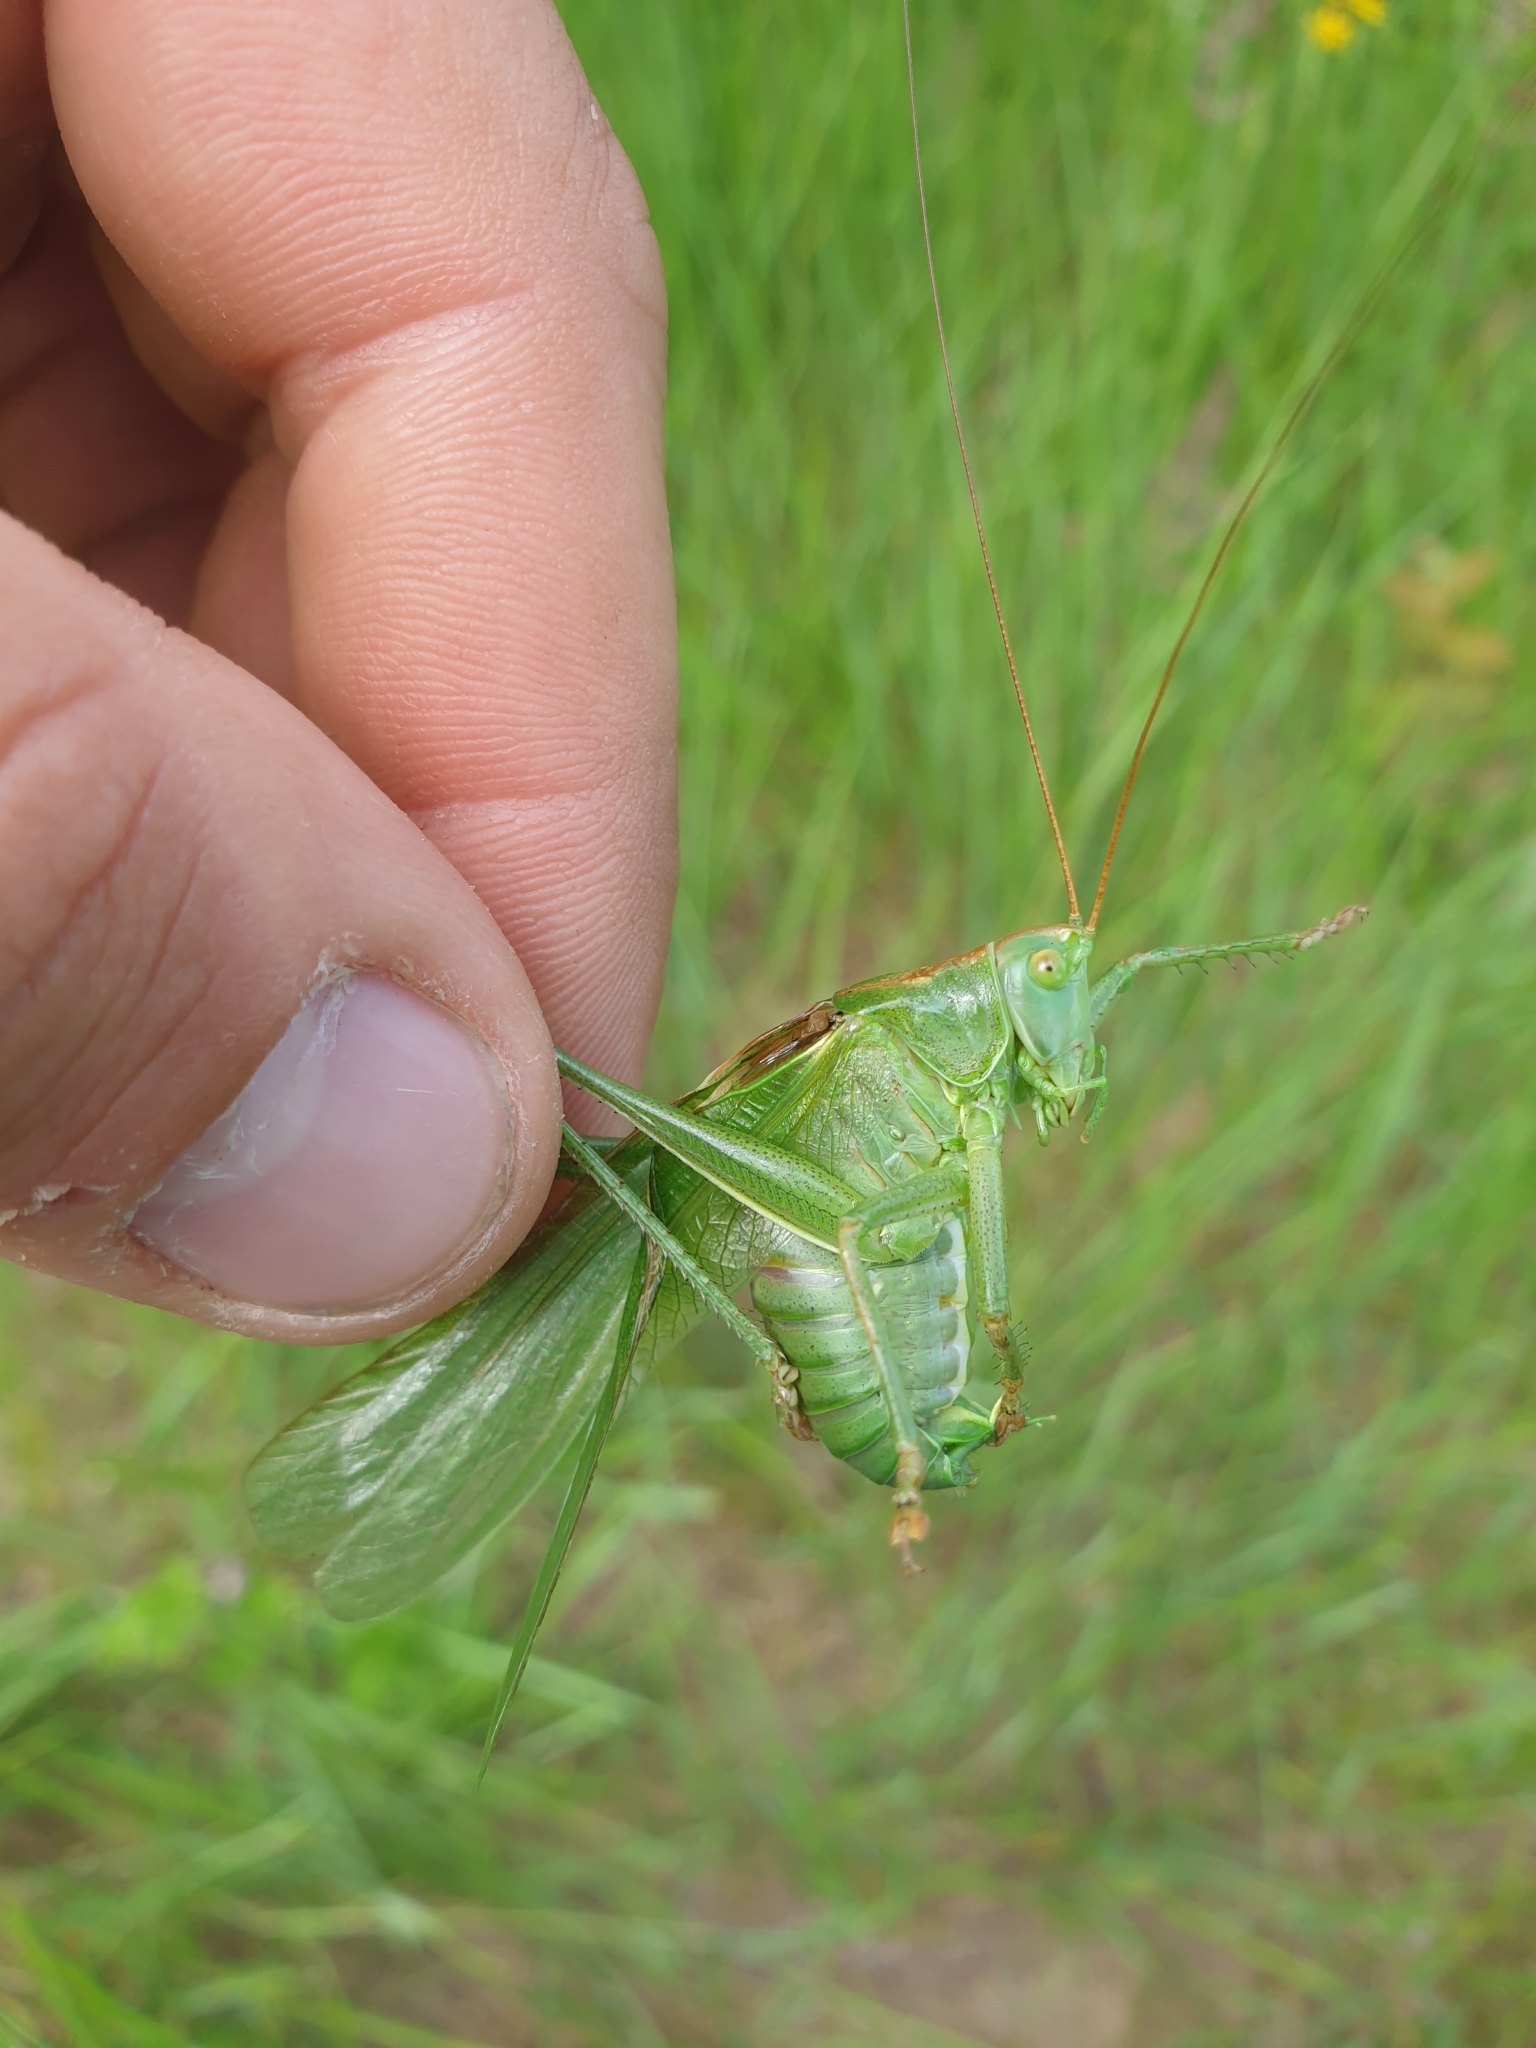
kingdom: Animalia
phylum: Arthropoda
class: Insecta
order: Orthoptera
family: Tettigoniidae
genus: Tettigonia
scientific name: Tettigonia viridissima
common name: Great green bush-cricket
